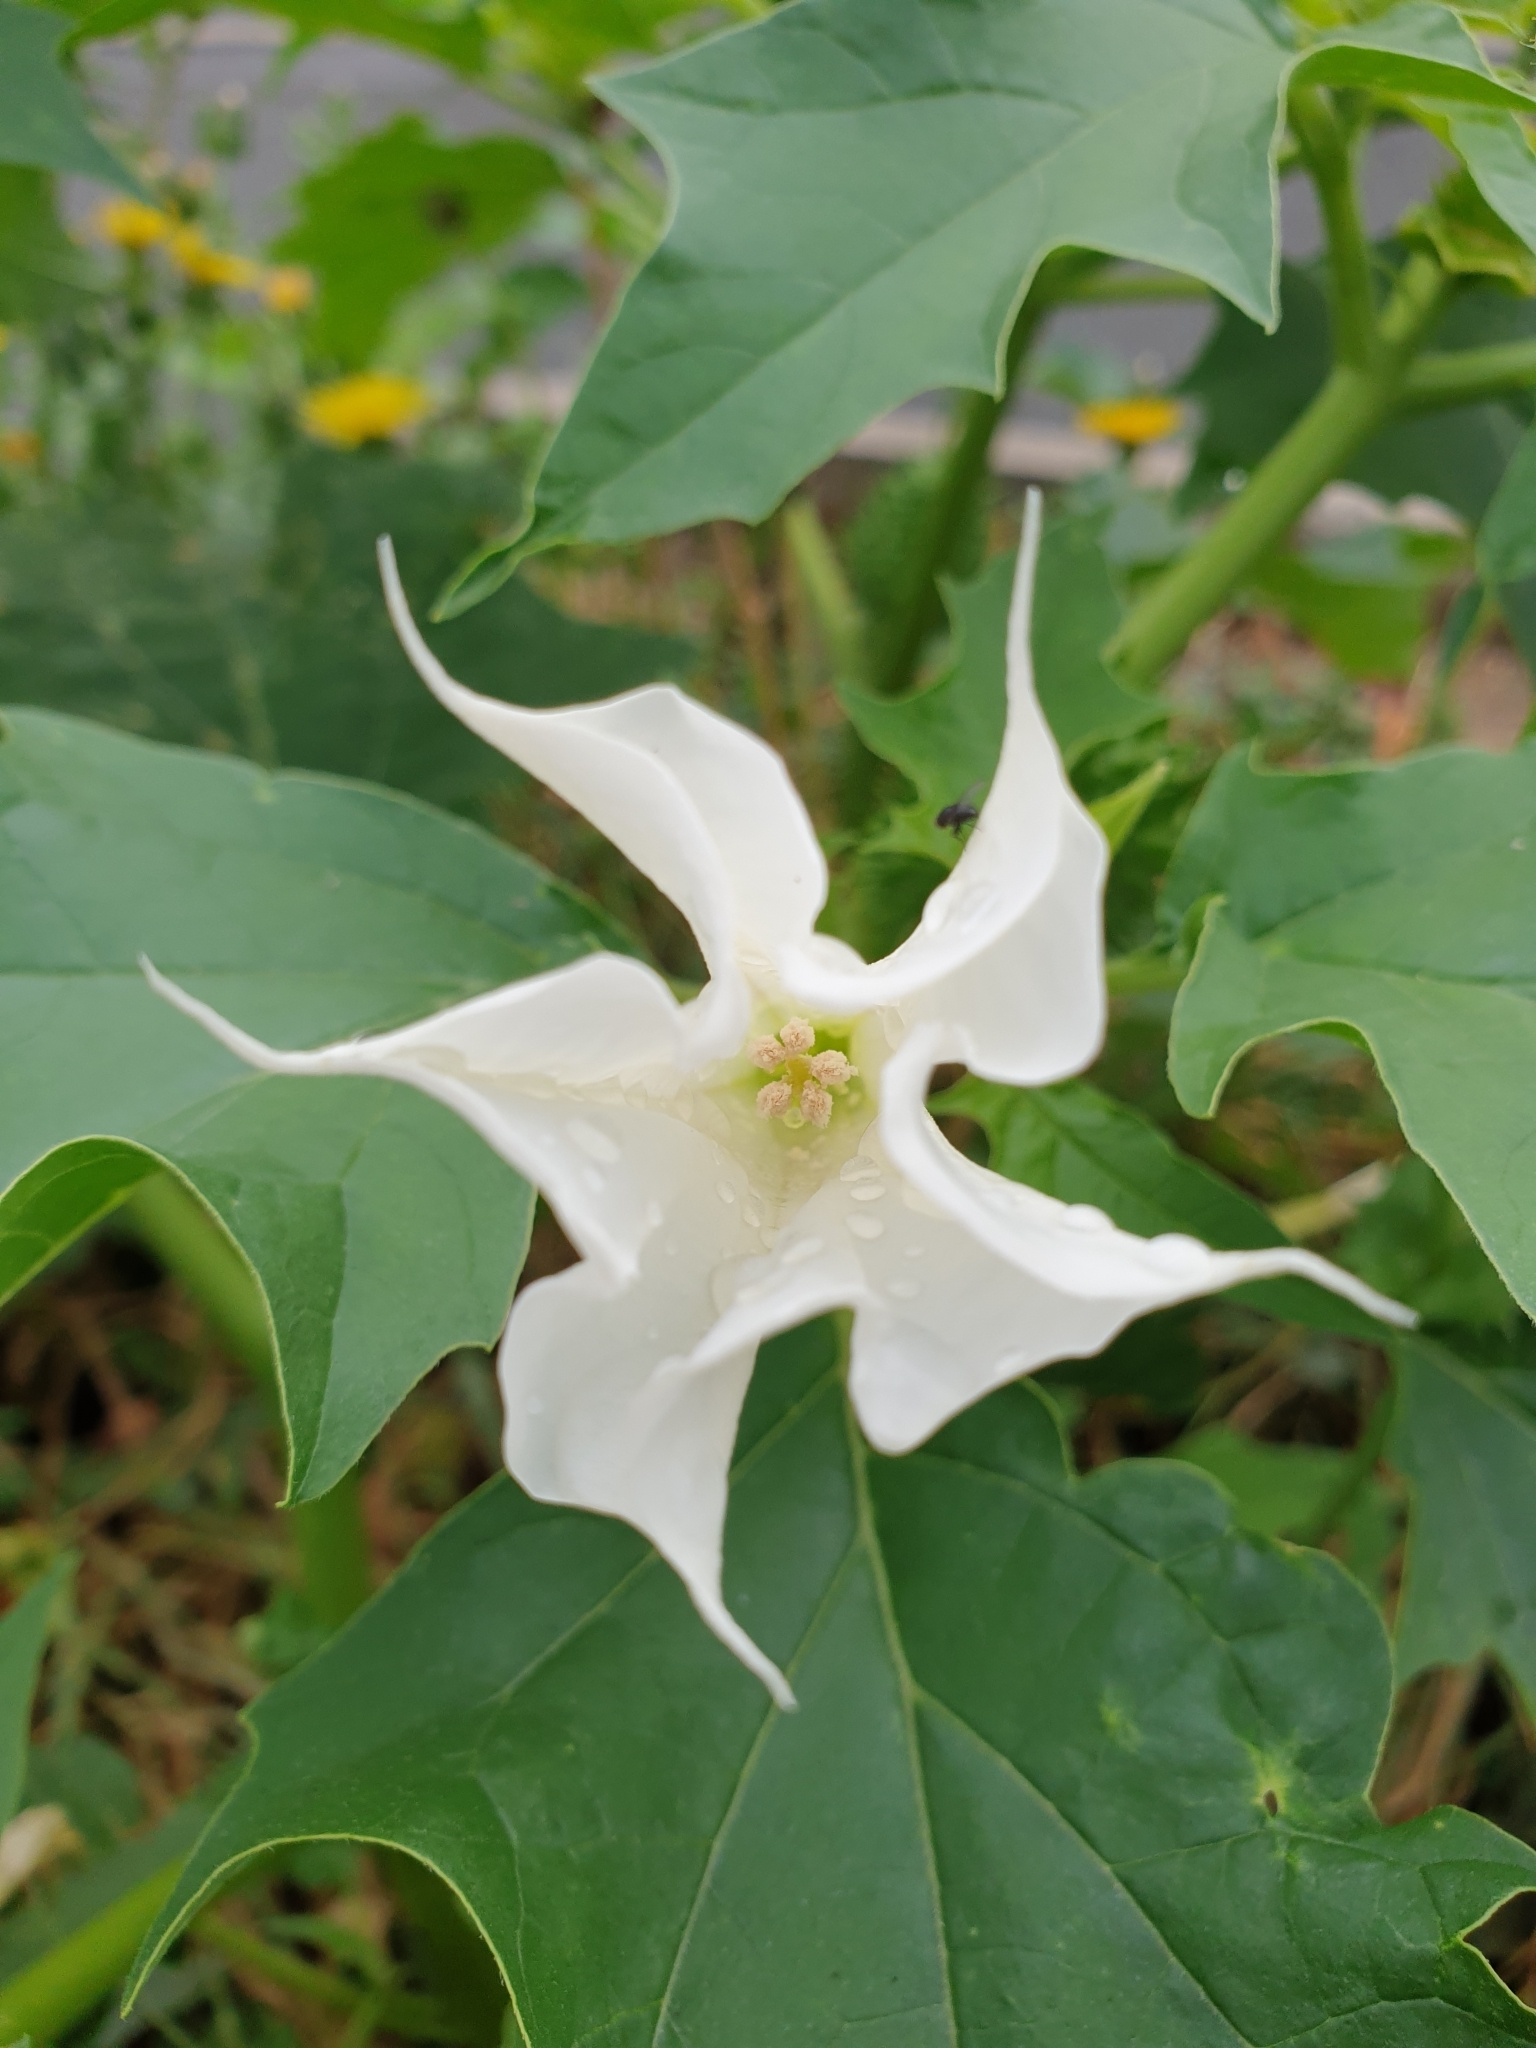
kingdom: Plantae
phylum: Tracheophyta
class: Magnoliopsida
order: Solanales
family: Solanaceae
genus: Datura
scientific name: Datura stramonium
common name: Thorn-apple
